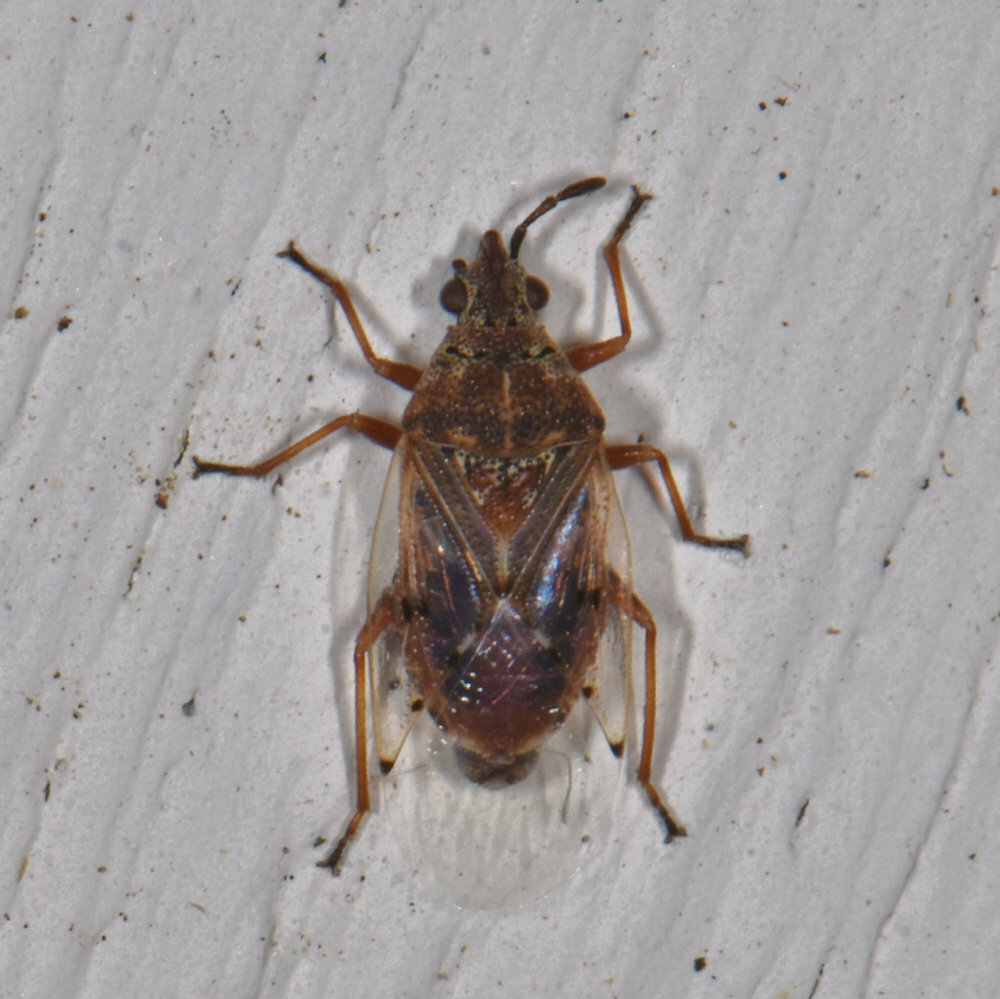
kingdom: Animalia
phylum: Arthropoda
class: Insecta
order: Hemiptera
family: Lygaeidae
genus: Kleidocerys
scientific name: Kleidocerys resedae
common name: Birch catkin bug
